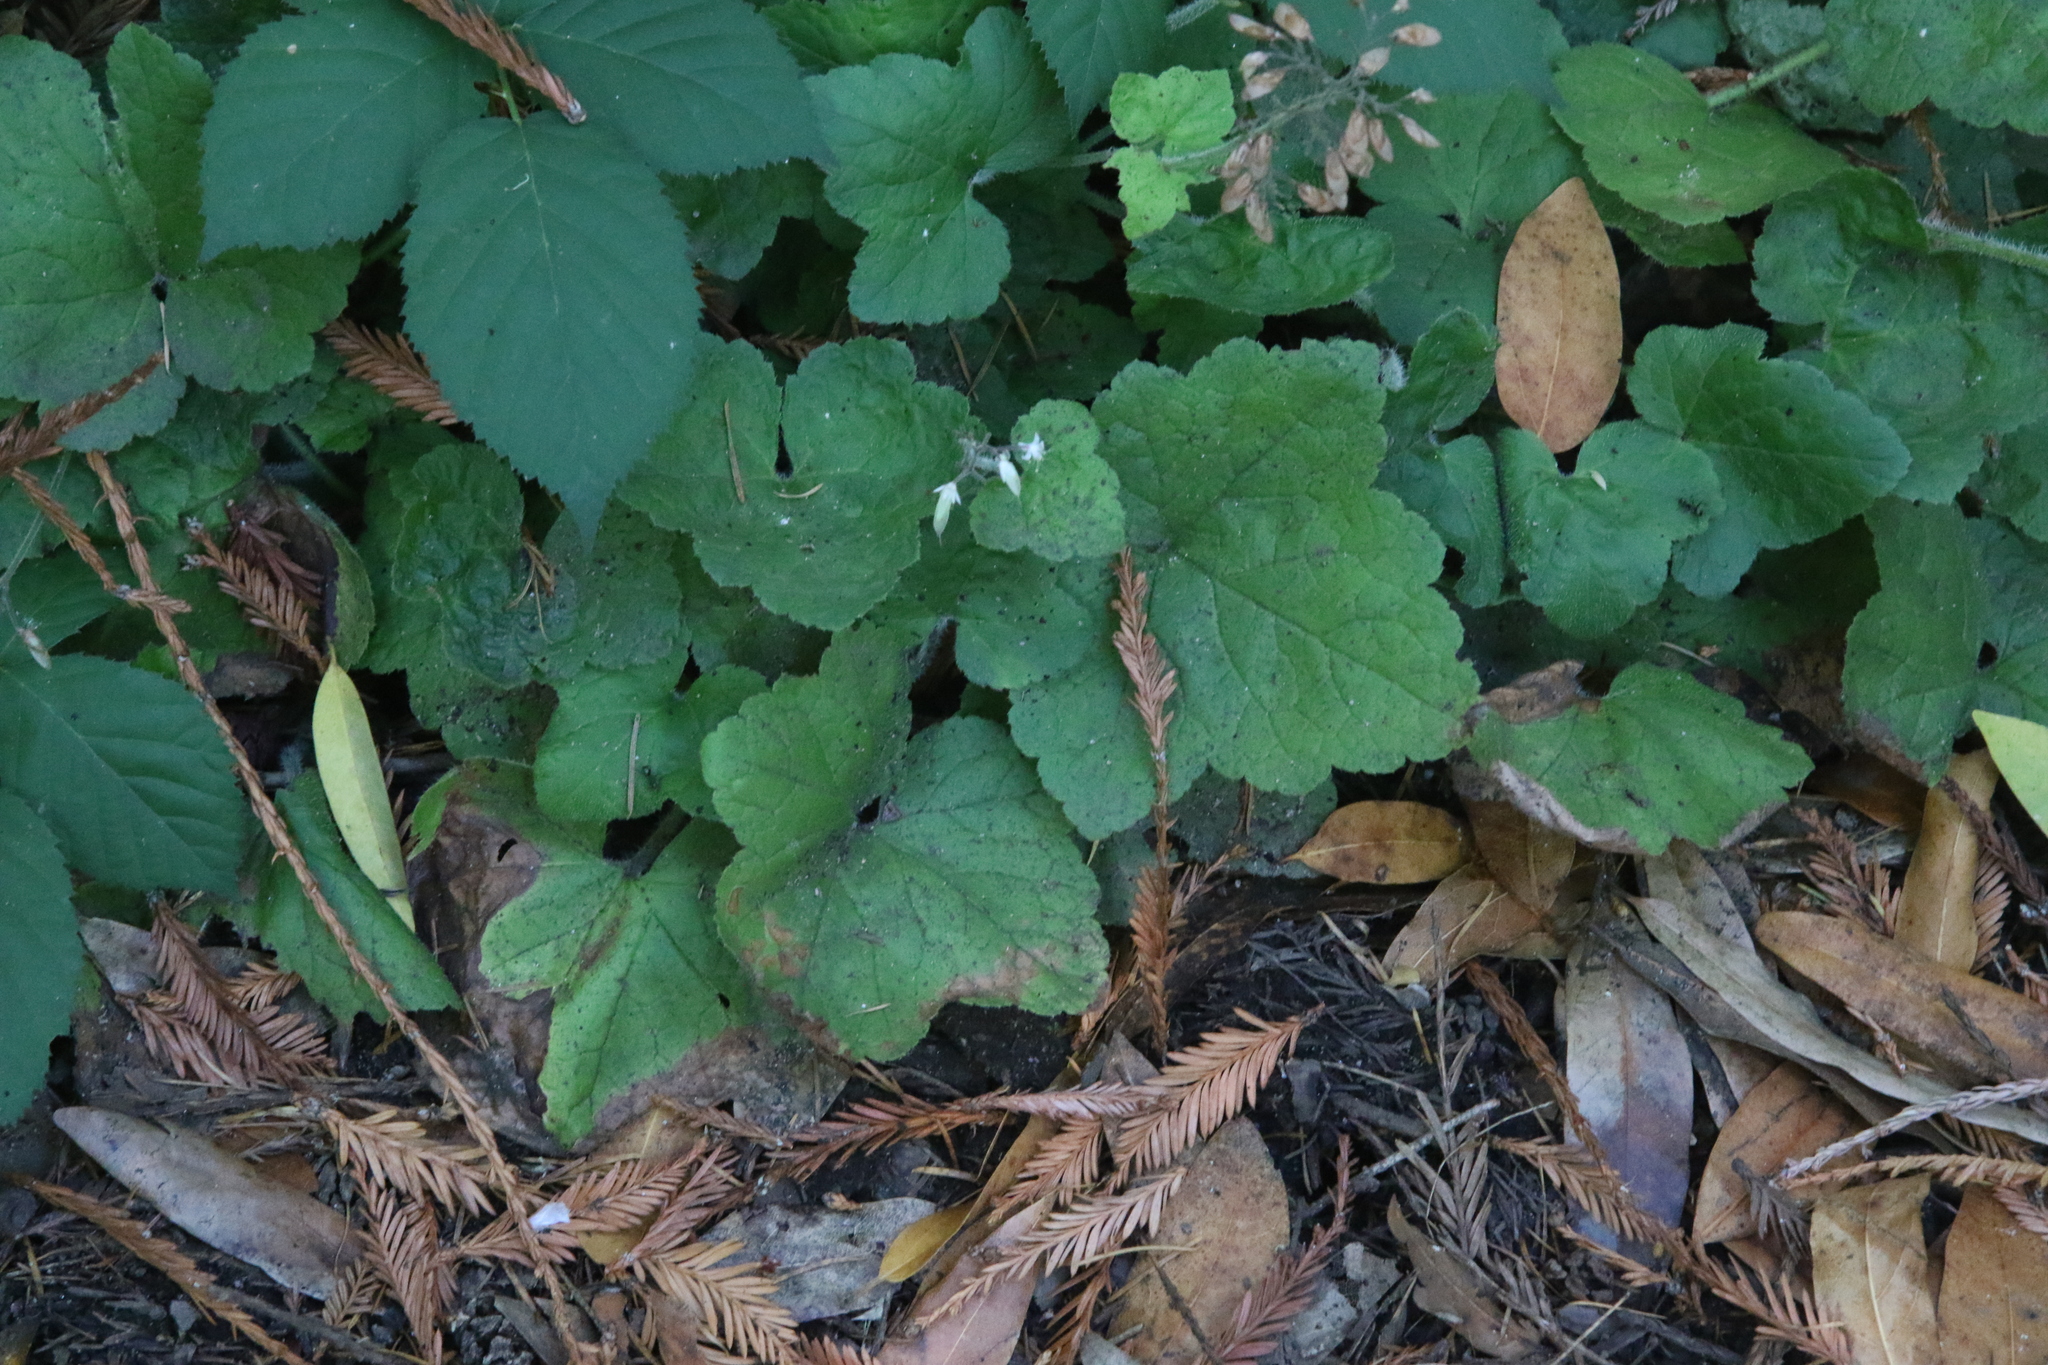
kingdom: Plantae
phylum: Tracheophyta
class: Magnoliopsida
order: Saxifragales
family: Saxifragaceae
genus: Tiarella
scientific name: Tiarella trifoliata
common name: Sugar-scoop
